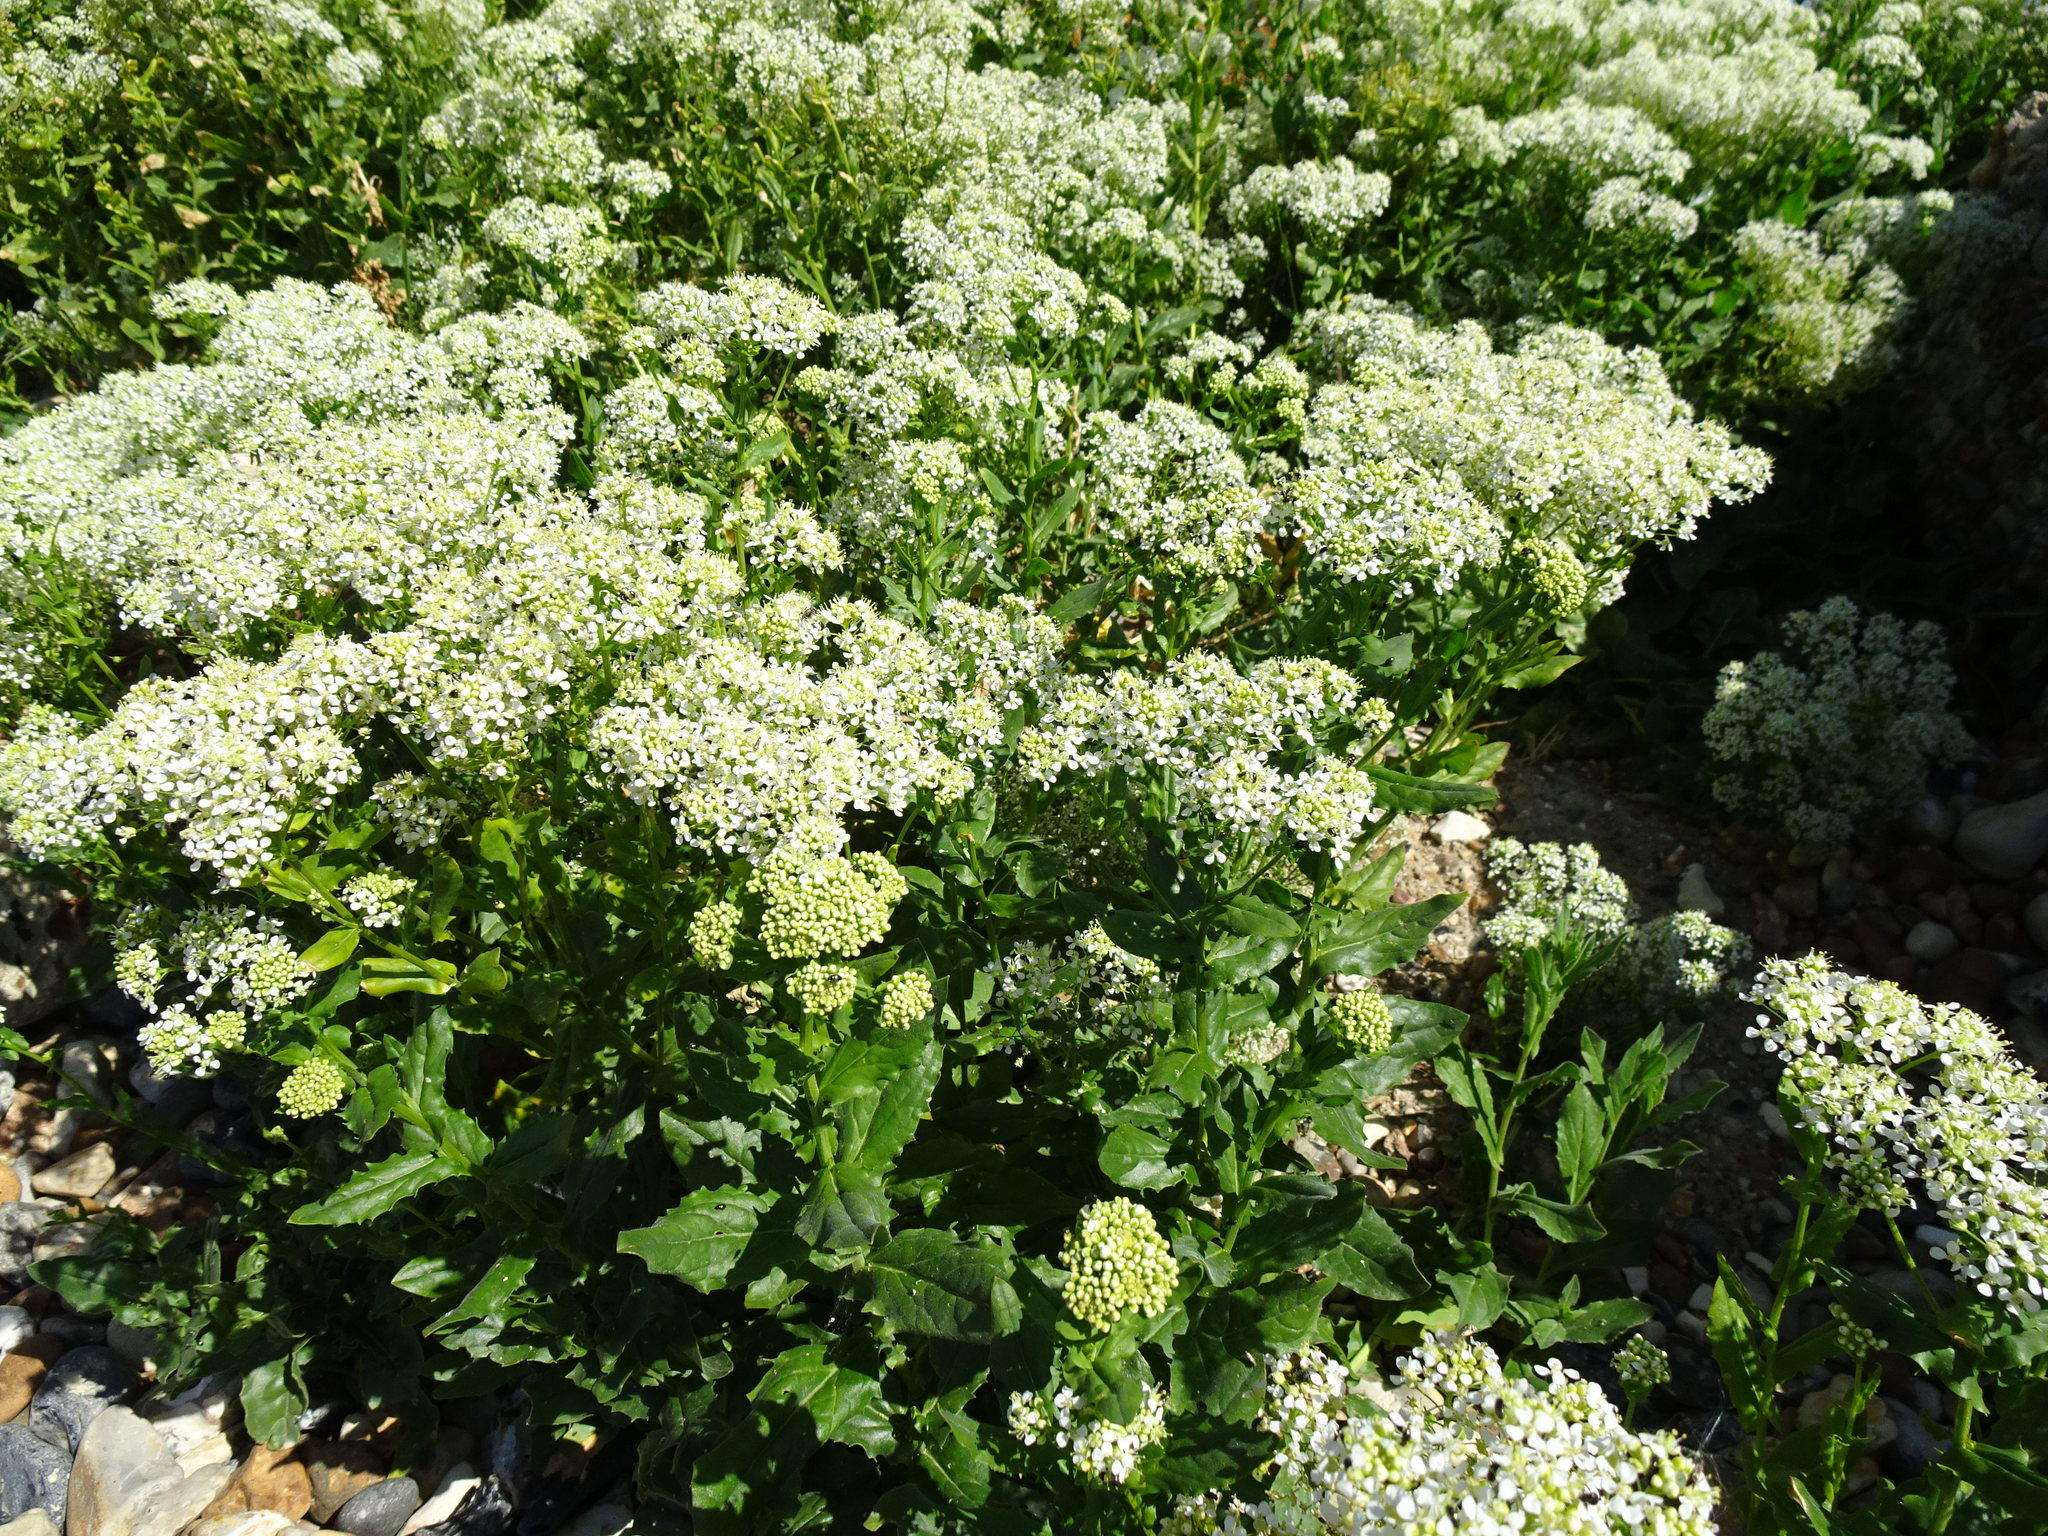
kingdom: Plantae
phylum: Tracheophyta
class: Magnoliopsida
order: Brassicales
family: Brassicaceae
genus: Lepidium
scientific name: Lepidium draba
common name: Hoary cress
